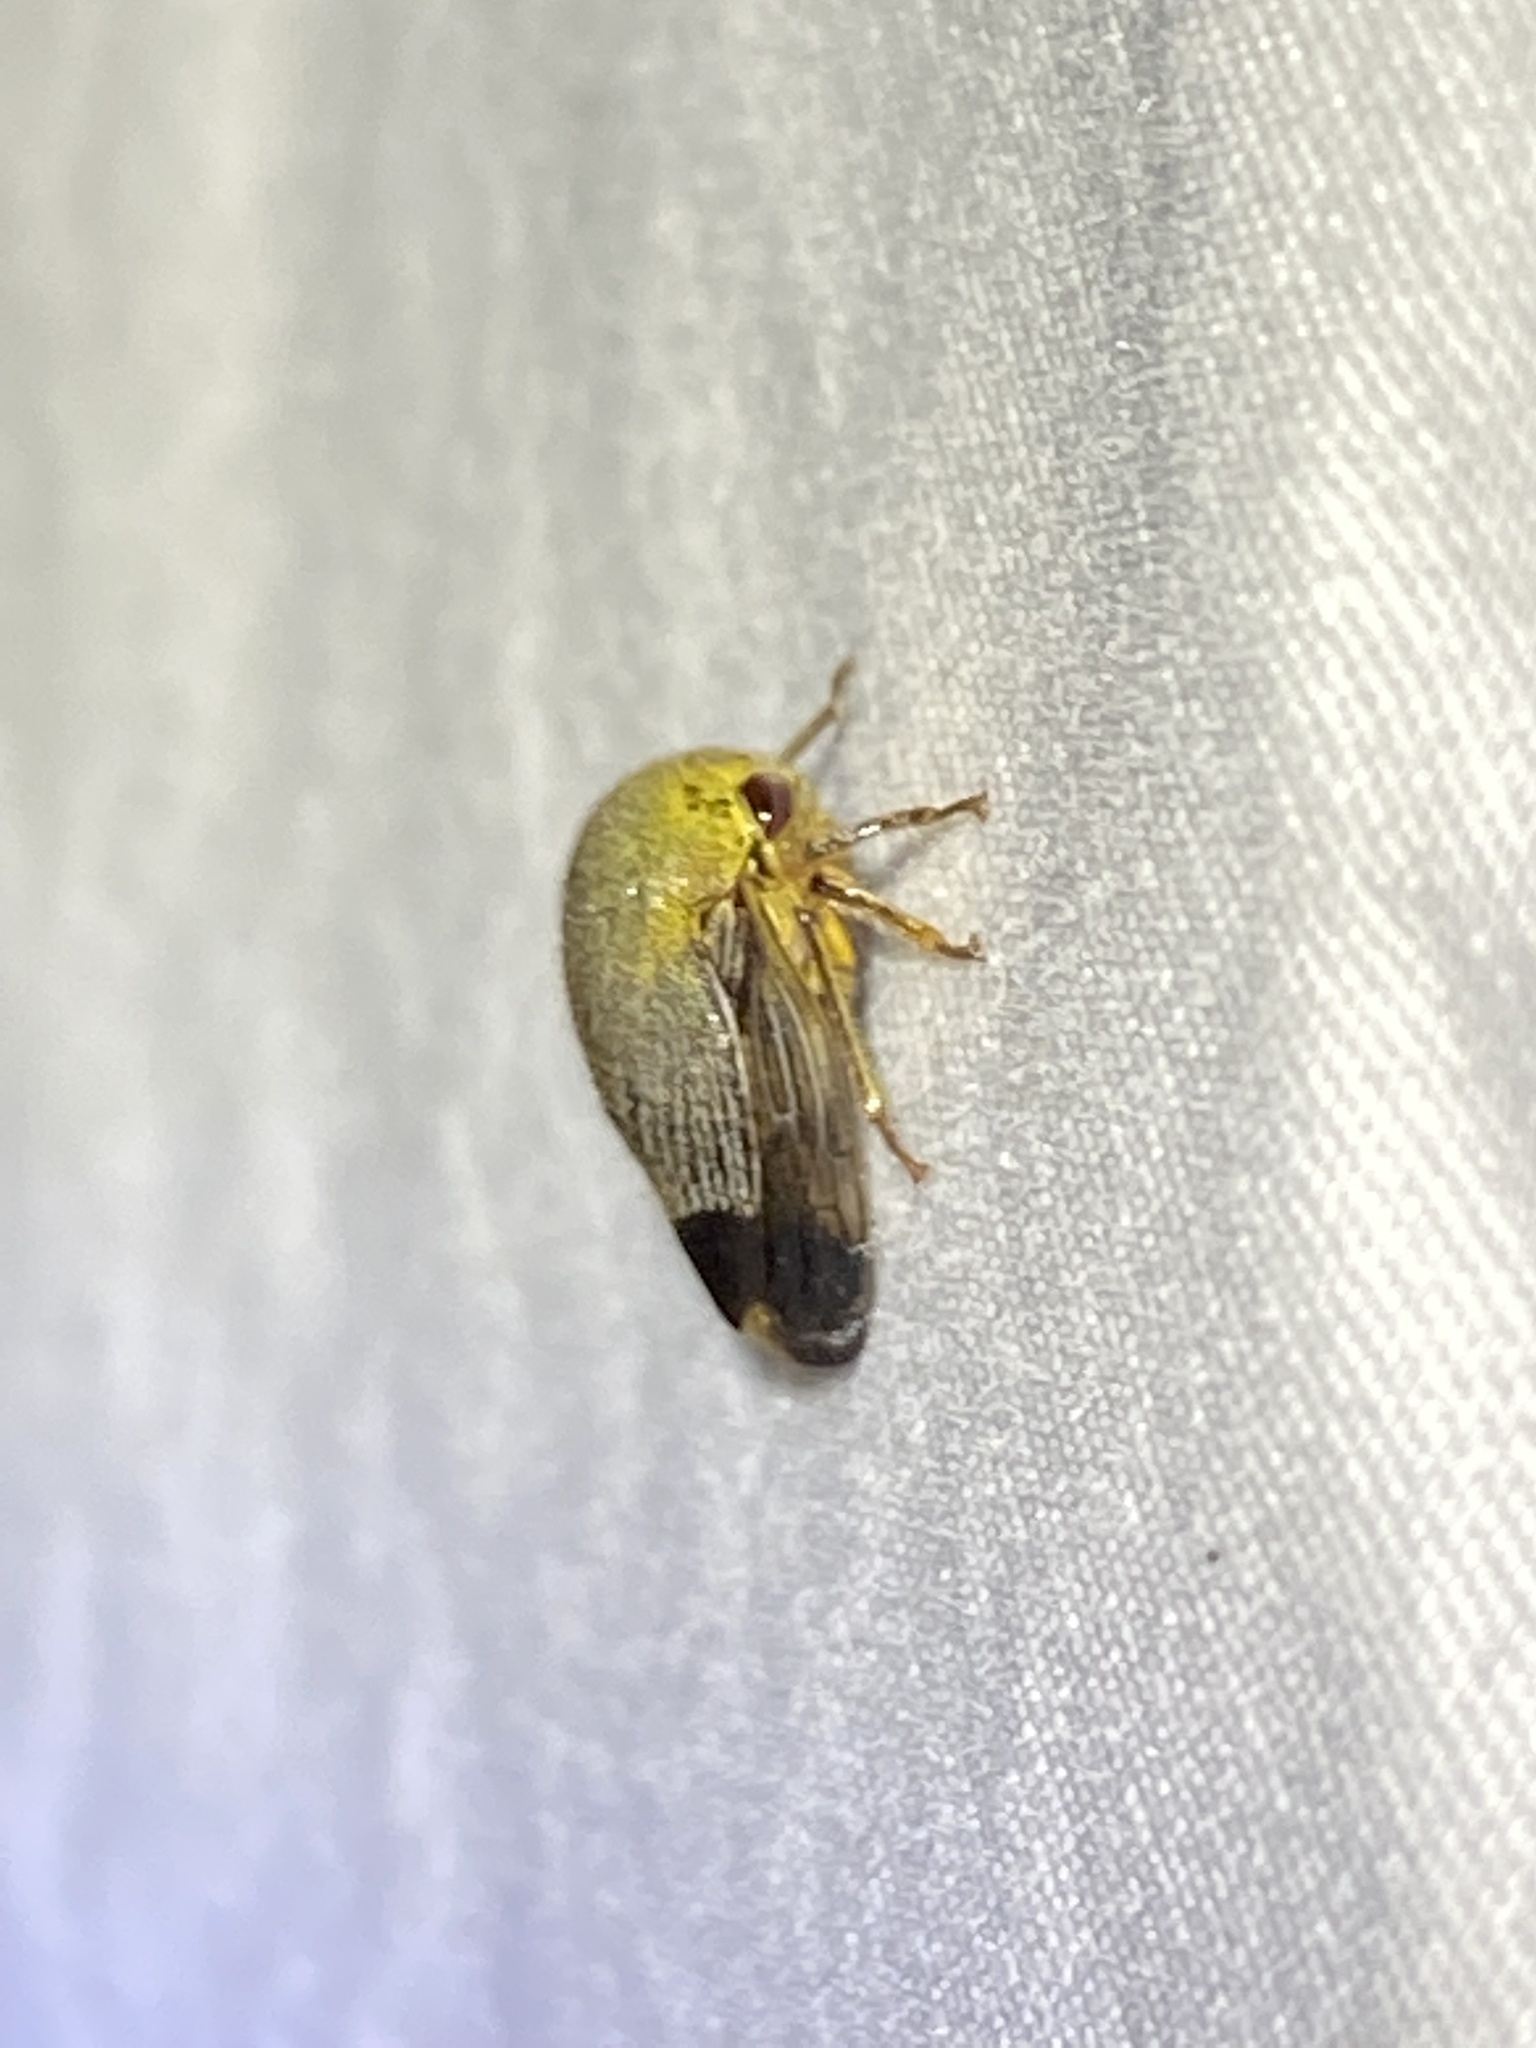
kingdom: Animalia
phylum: Arthropoda
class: Insecta
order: Hemiptera
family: Membracidae
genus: Carynota
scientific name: Carynota mera
